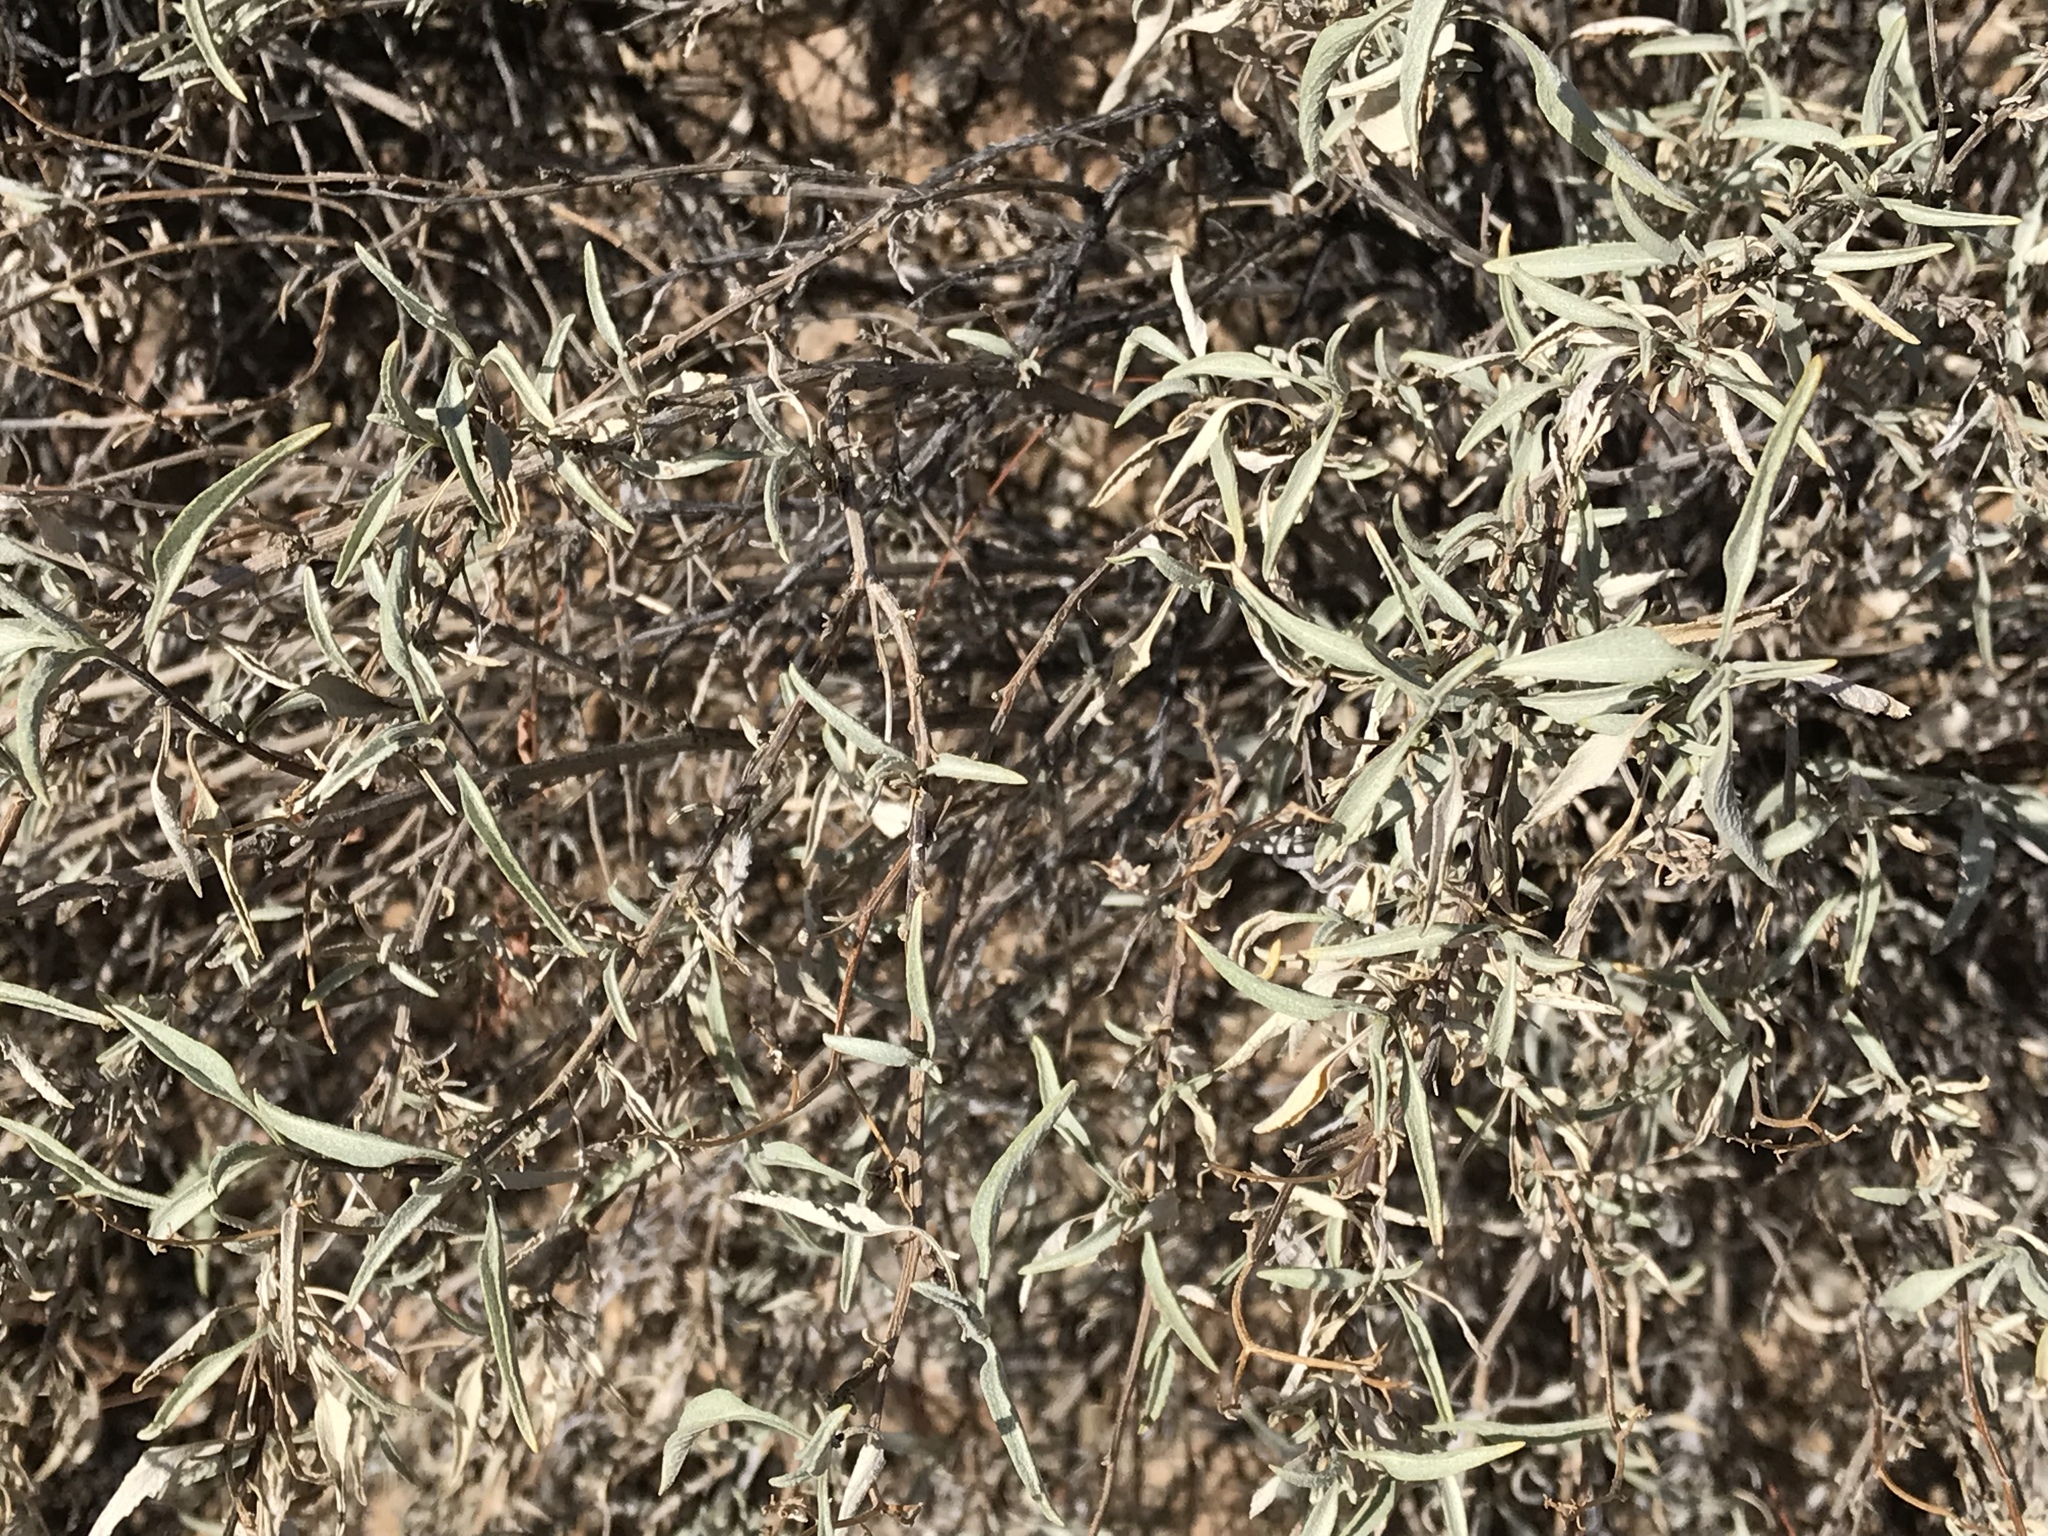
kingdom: Plantae
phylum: Tracheophyta
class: Magnoliopsida
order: Asterales
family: Asteraceae
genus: Ambrosia
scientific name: Ambrosia deltoidea
